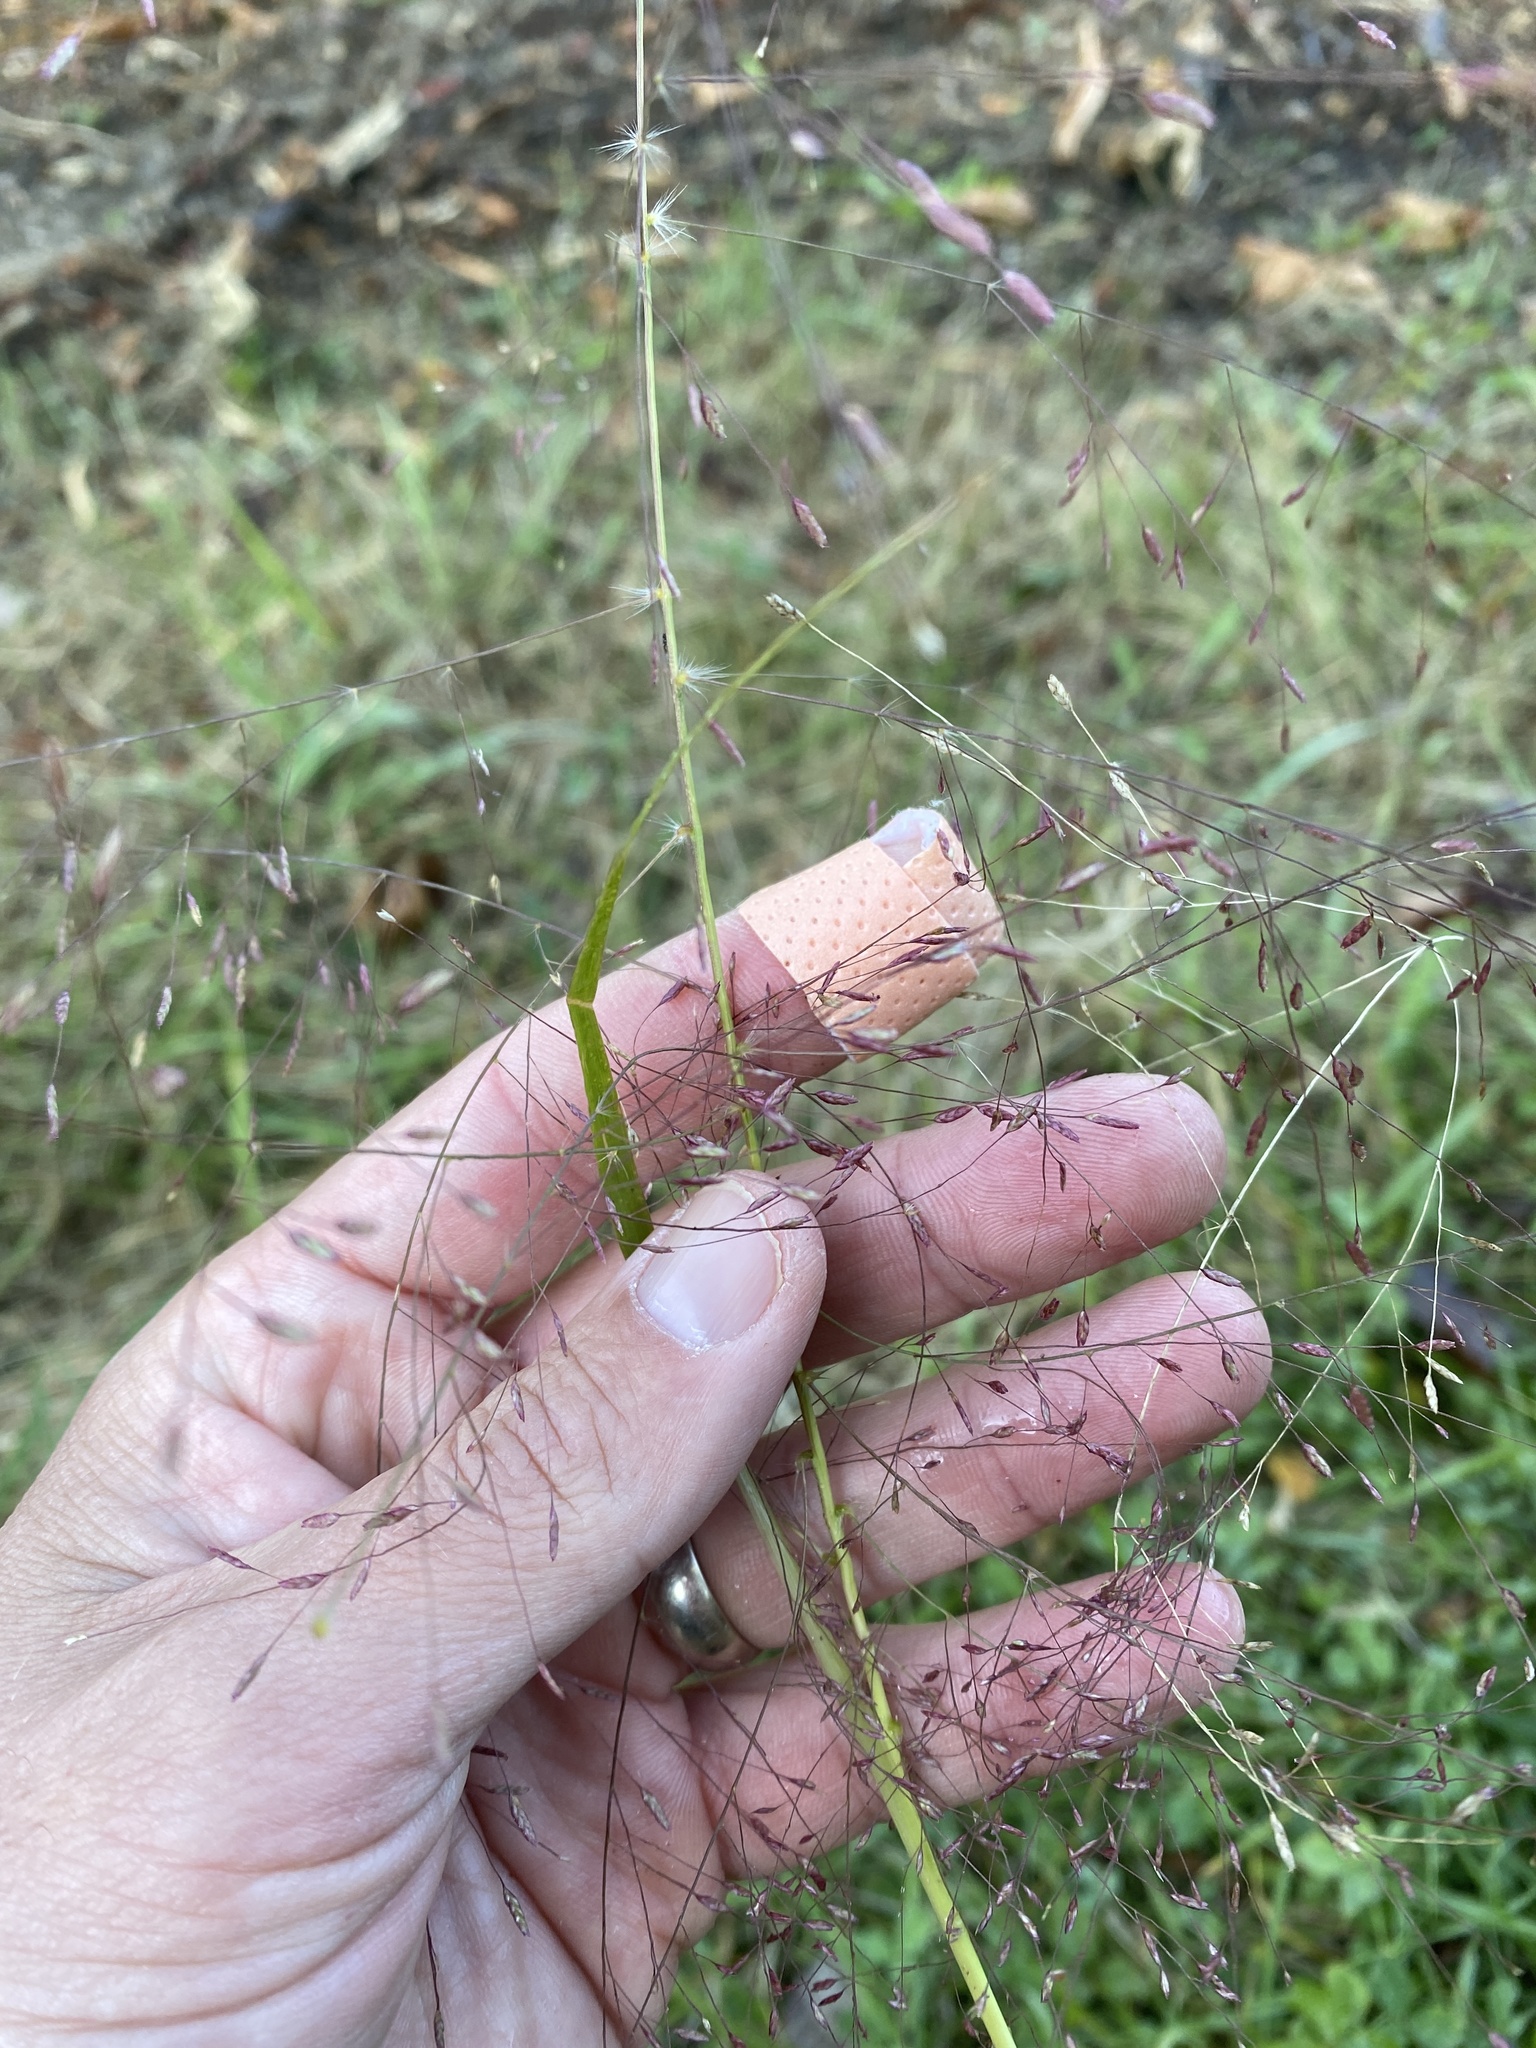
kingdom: Plantae
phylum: Tracheophyta
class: Liliopsida
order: Poales
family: Poaceae
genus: Eragrostis
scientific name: Eragrostis spectabilis
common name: Petticoat-climber
